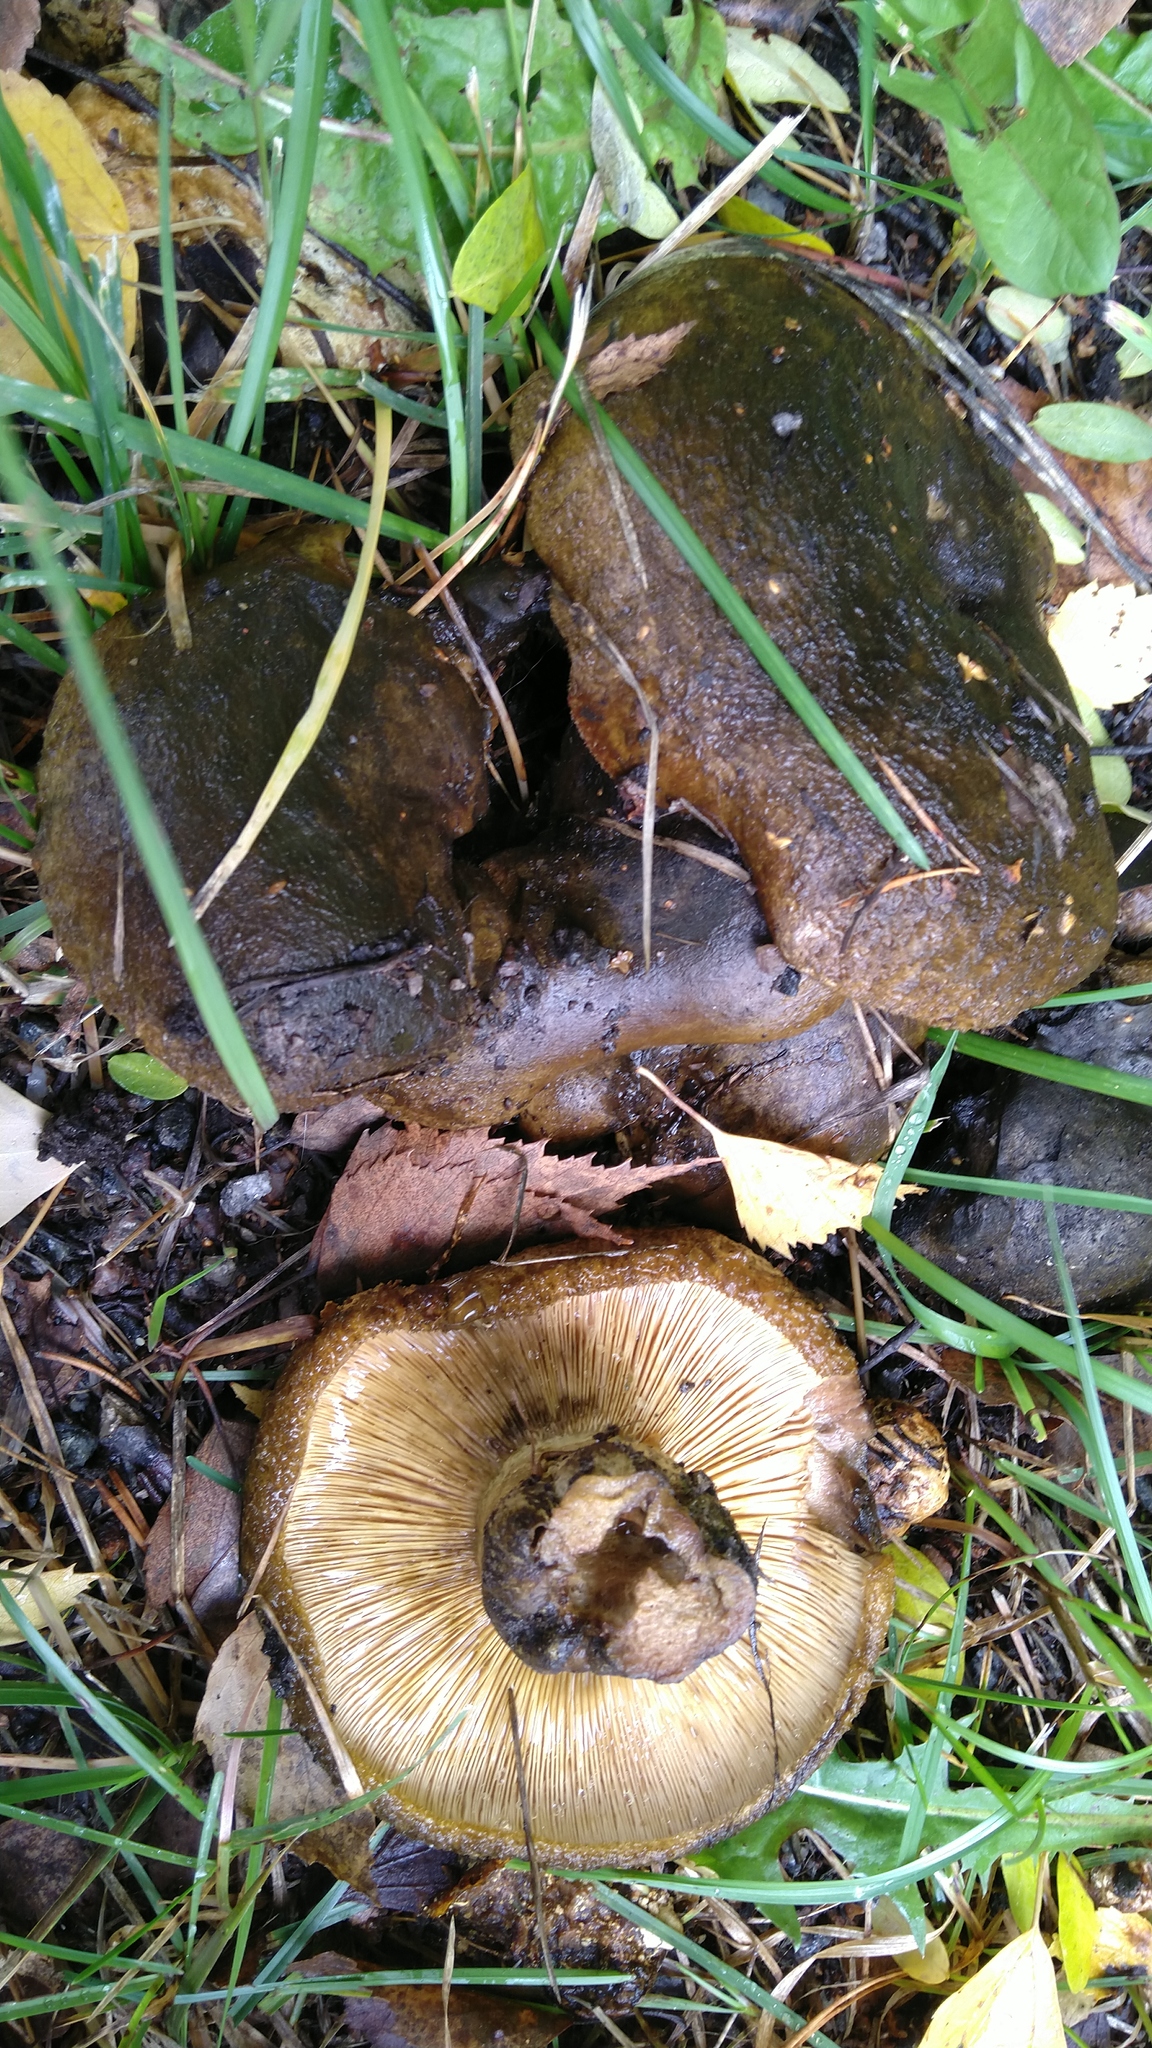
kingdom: Fungi
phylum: Basidiomycota
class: Agaricomycetes
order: Russulales
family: Russulaceae
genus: Lactarius
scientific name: Lactarius turpis
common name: Ugly milk-cap
